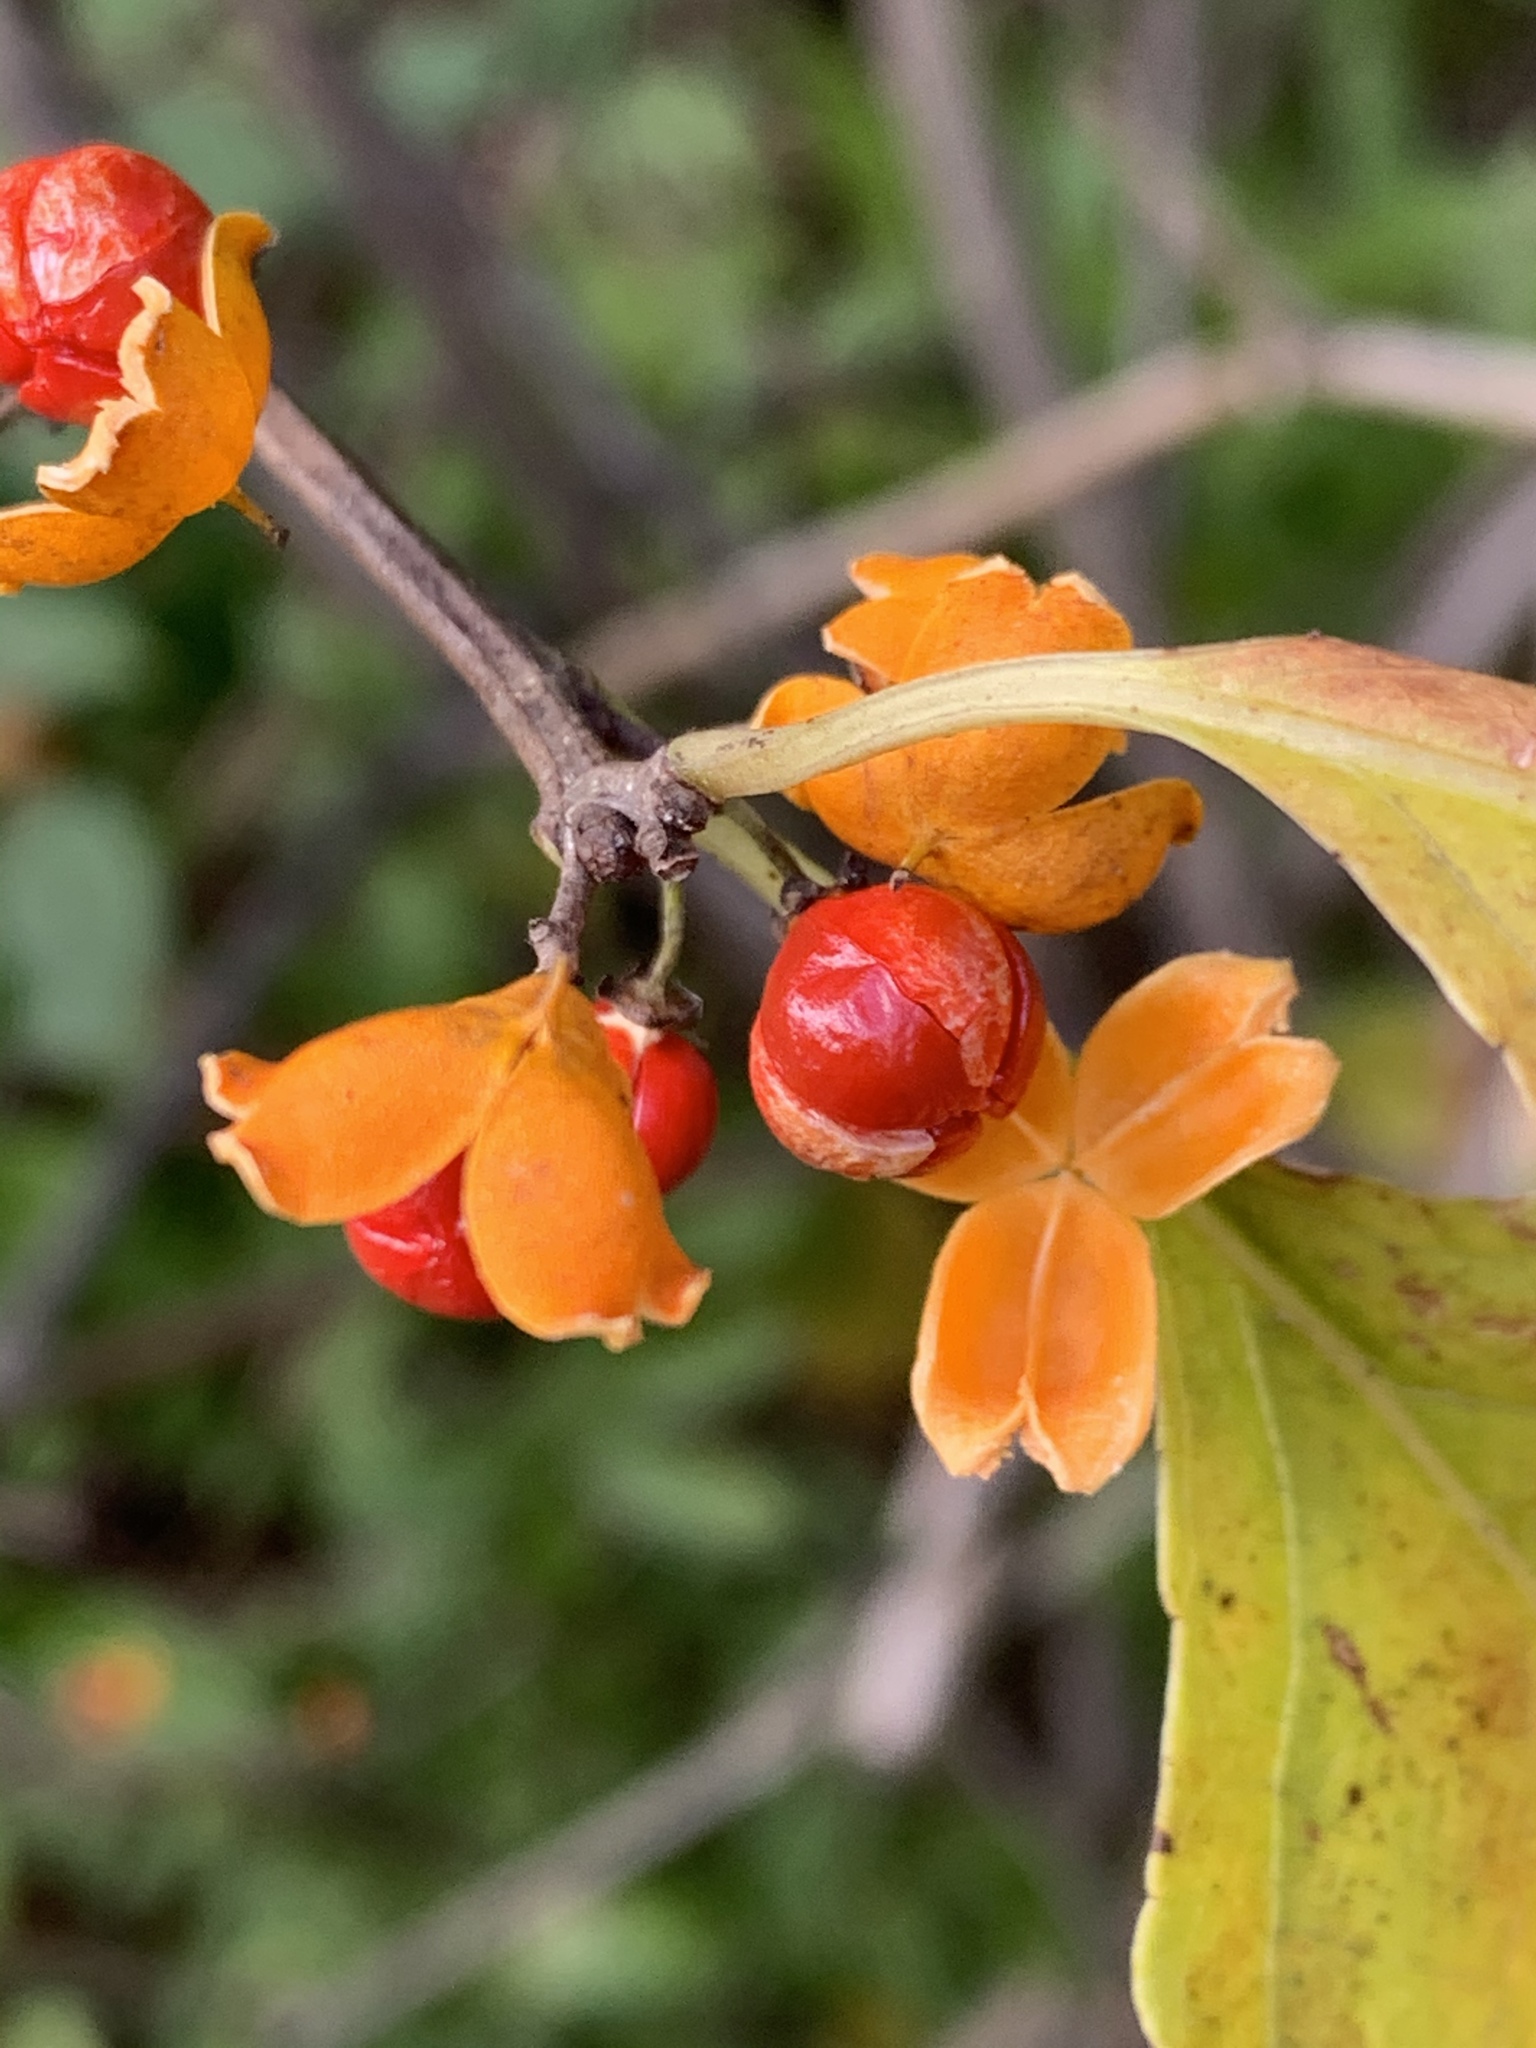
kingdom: Plantae
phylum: Tracheophyta
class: Magnoliopsida
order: Celastrales
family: Celastraceae
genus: Celastrus
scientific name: Celastrus orbiculatus
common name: Oriental bittersweet
